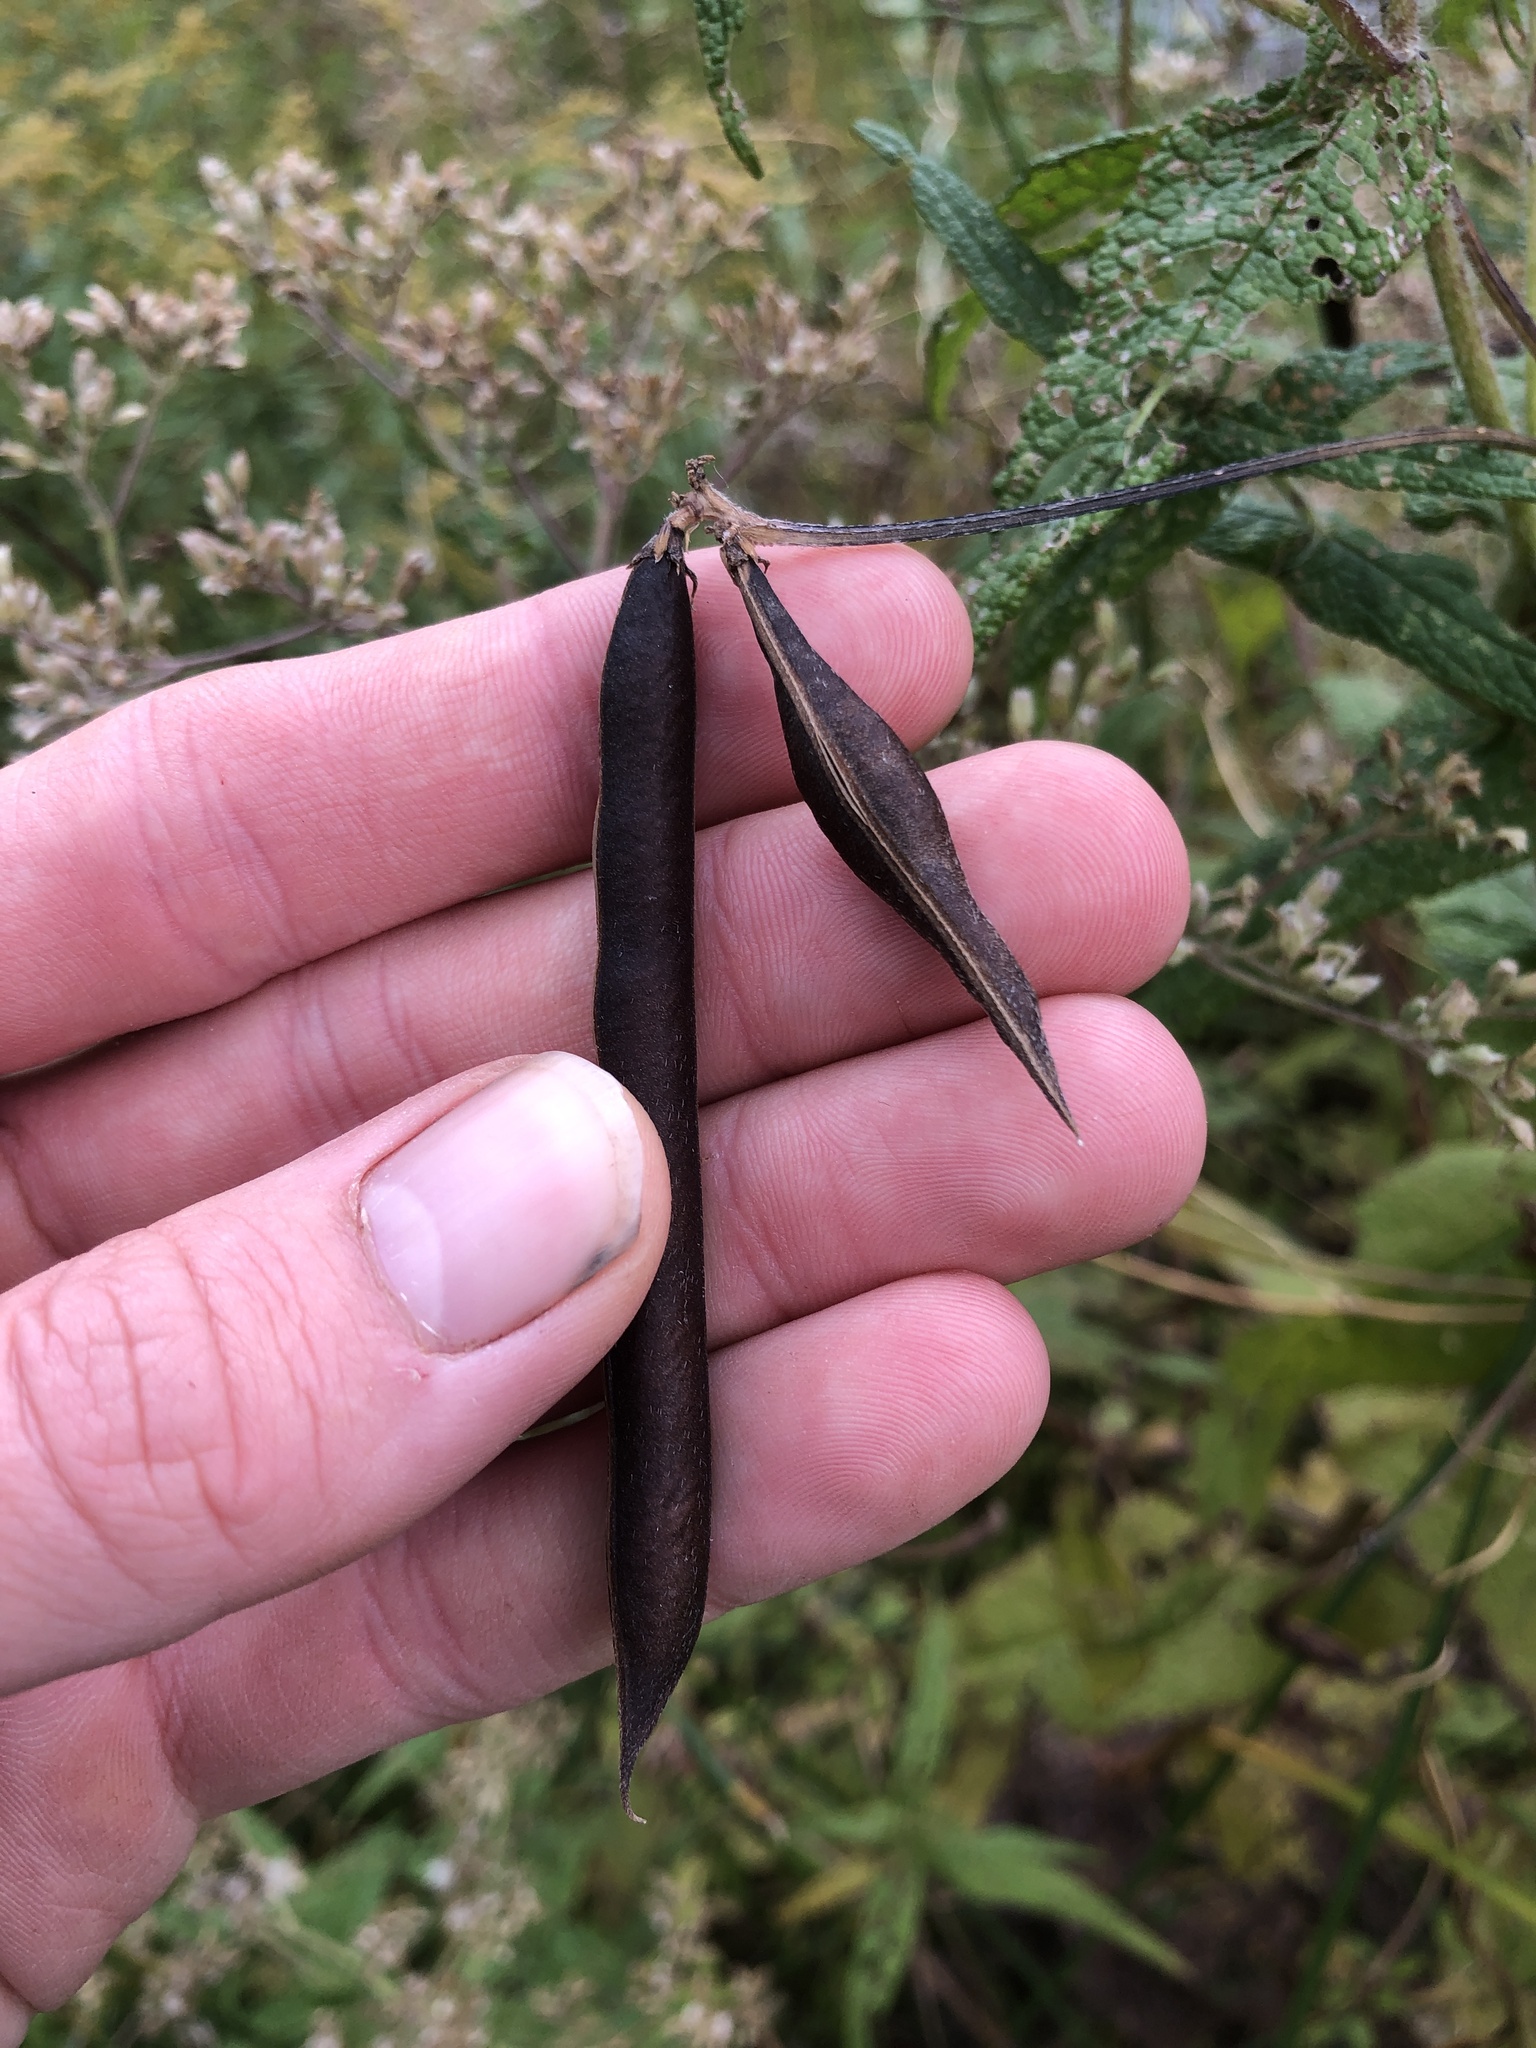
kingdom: Plantae
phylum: Tracheophyta
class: Magnoliopsida
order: Fabales
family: Fabaceae
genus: Strophostyles
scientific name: Strophostyles helvola
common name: Trailing wild bean
